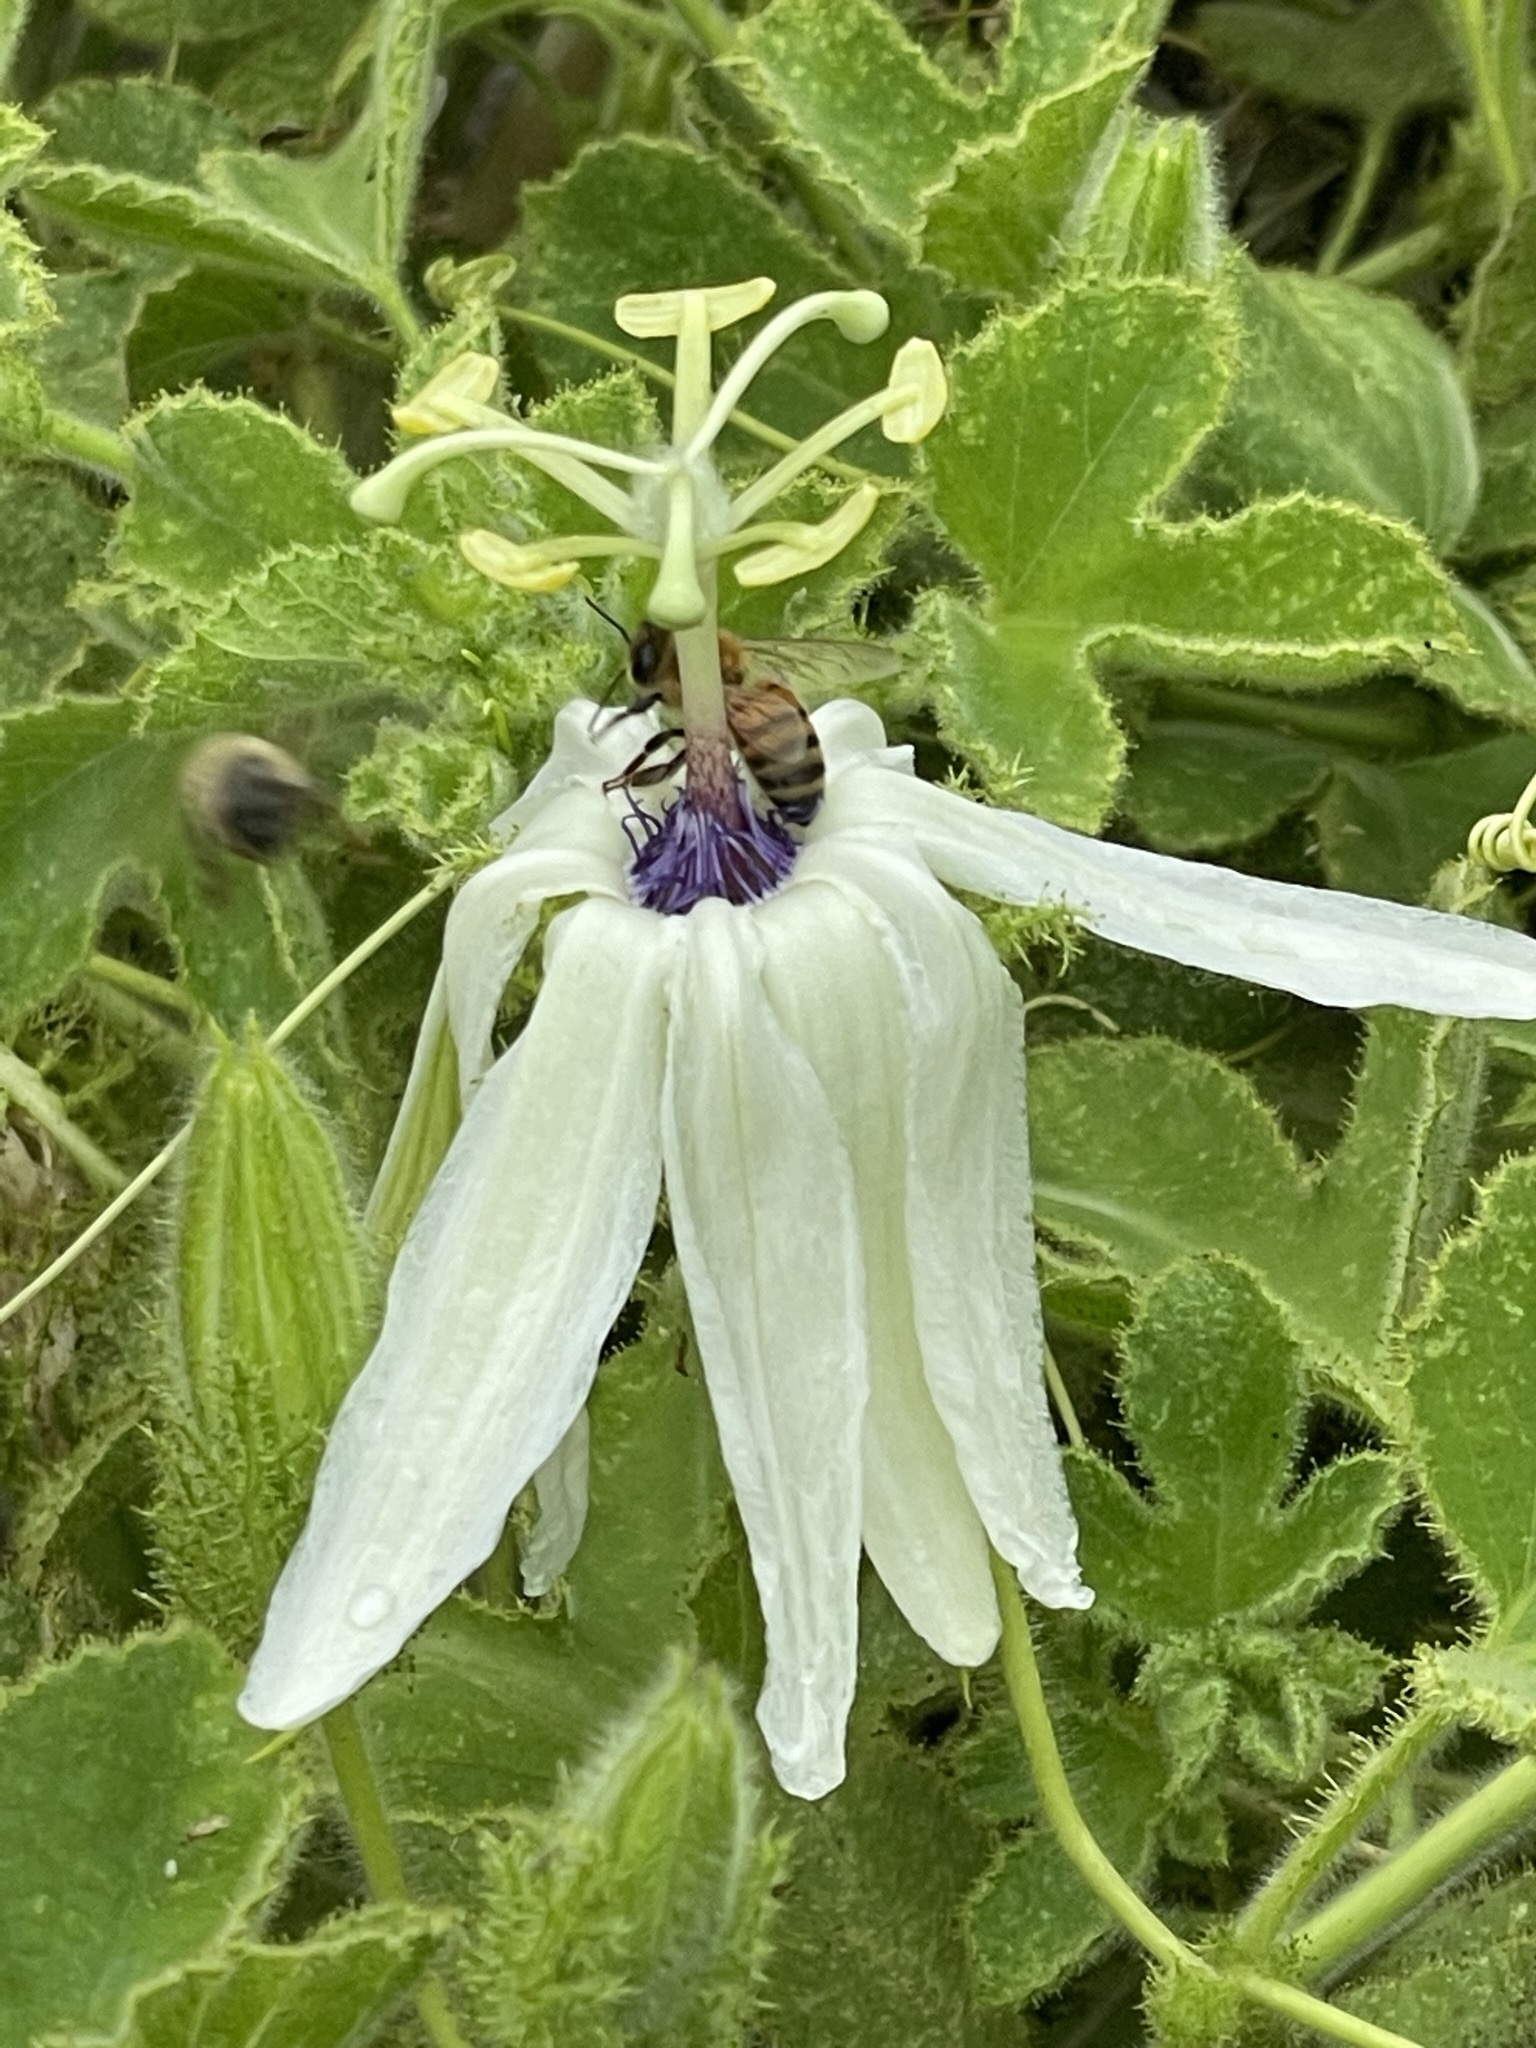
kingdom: Plantae
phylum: Tracheophyta
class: Magnoliopsida
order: Malpighiales
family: Passifloraceae
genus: Passiflora
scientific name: Passiflora palmeri
